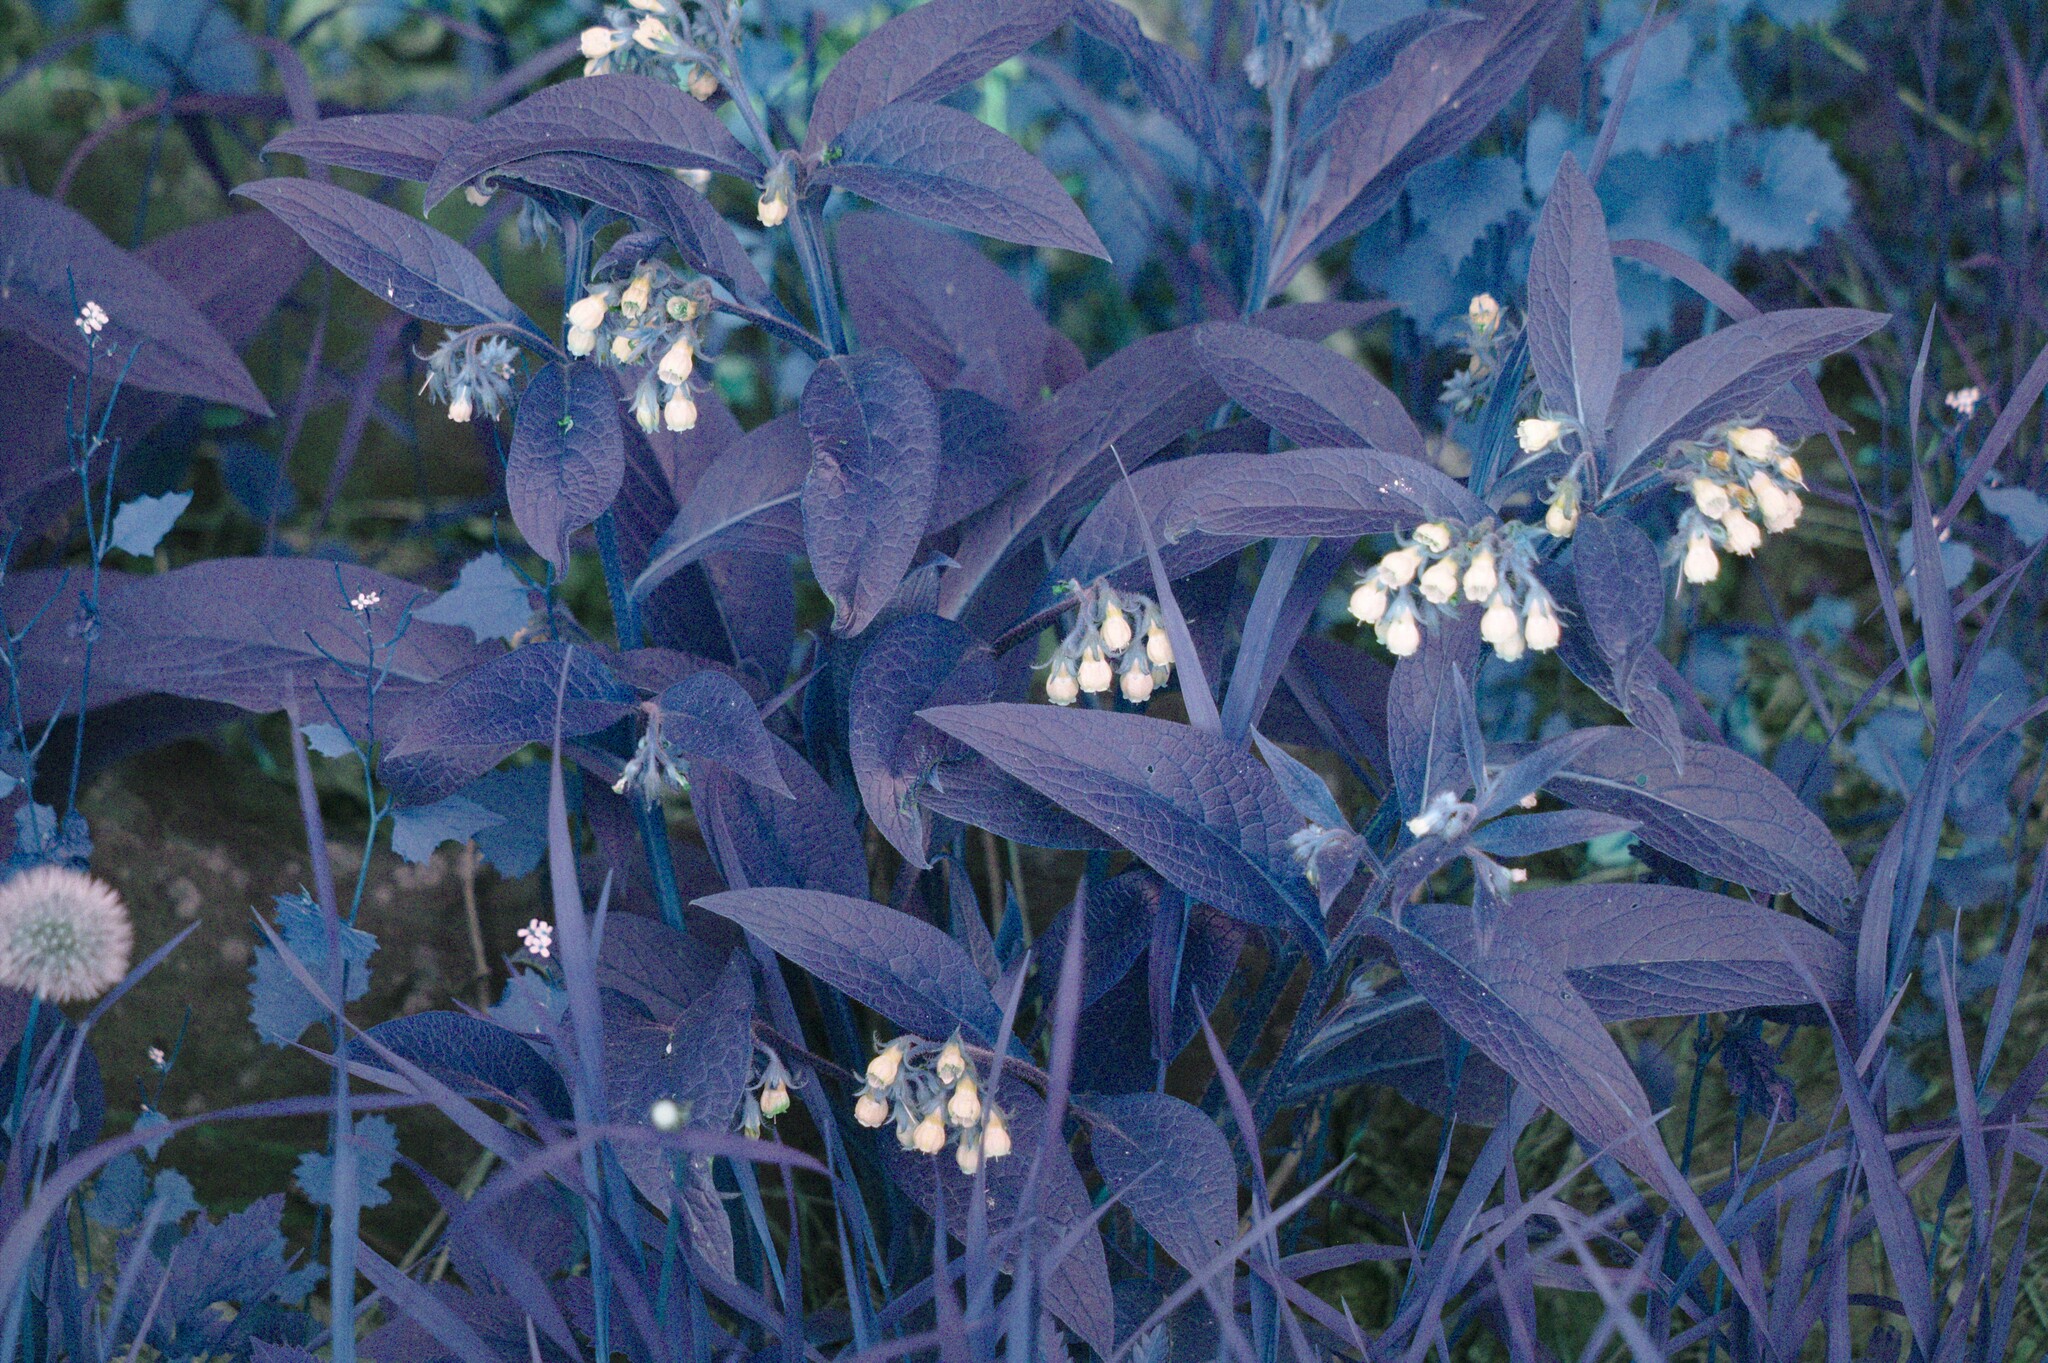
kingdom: Plantae
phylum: Tracheophyta
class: Magnoliopsida
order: Boraginales
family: Boraginaceae
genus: Symphytum
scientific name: Symphytum officinale
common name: Common comfrey
